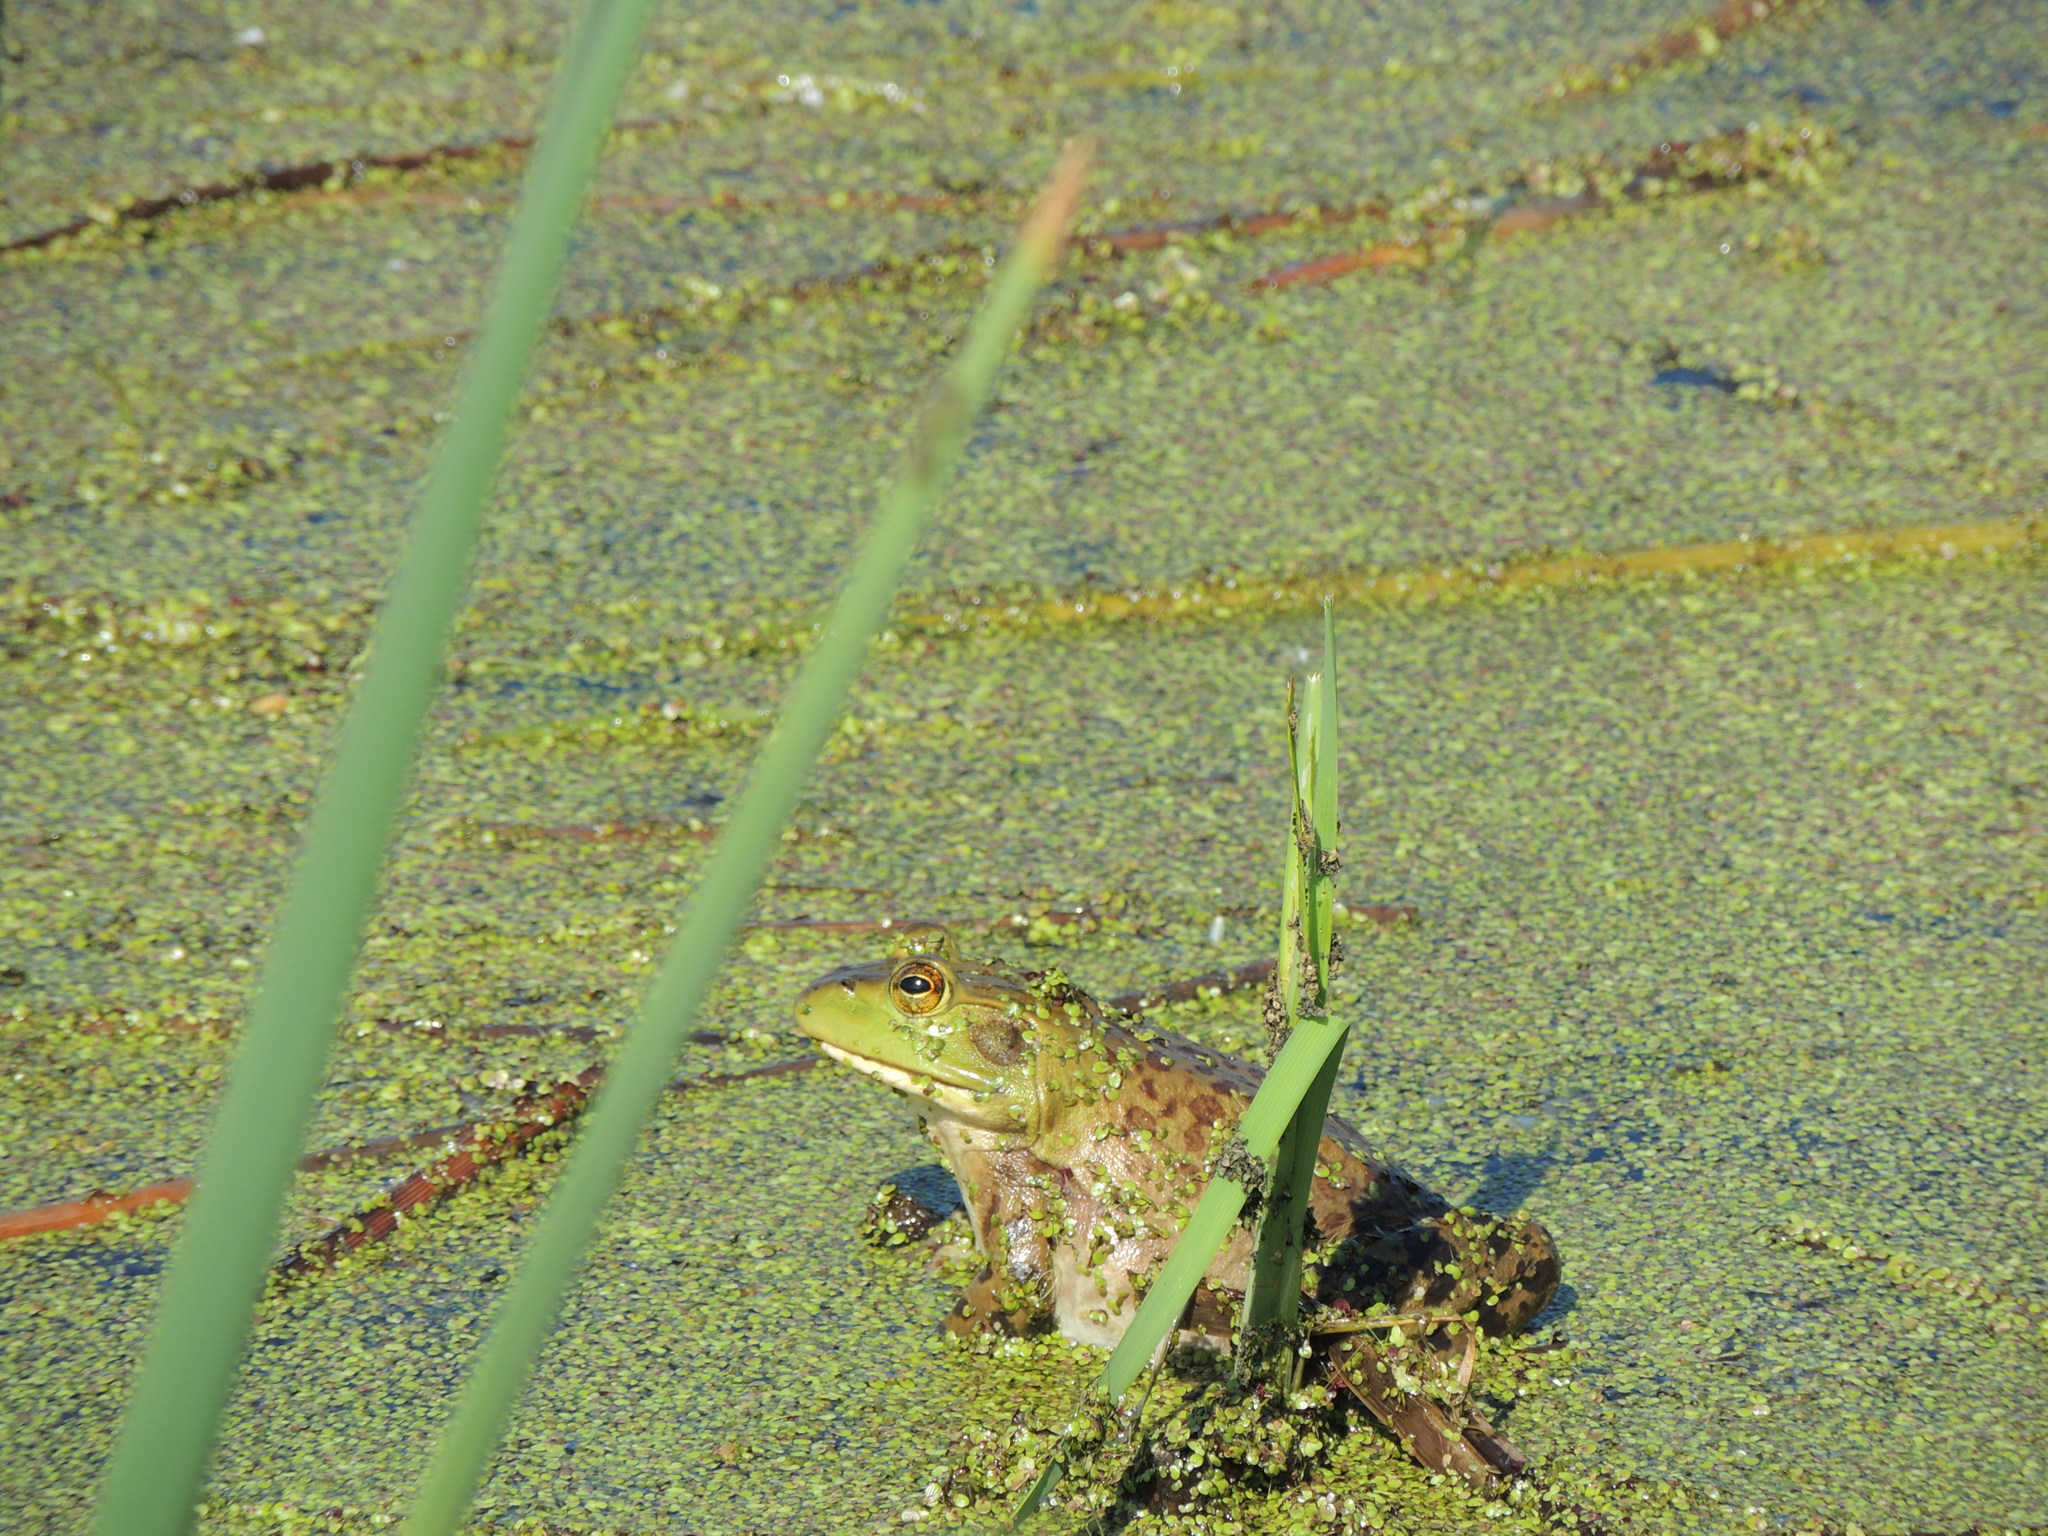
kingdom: Animalia
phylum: Chordata
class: Amphibia
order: Anura
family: Ranidae
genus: Lithobates
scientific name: Lithobates catesbeianus
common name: American bullfrog
